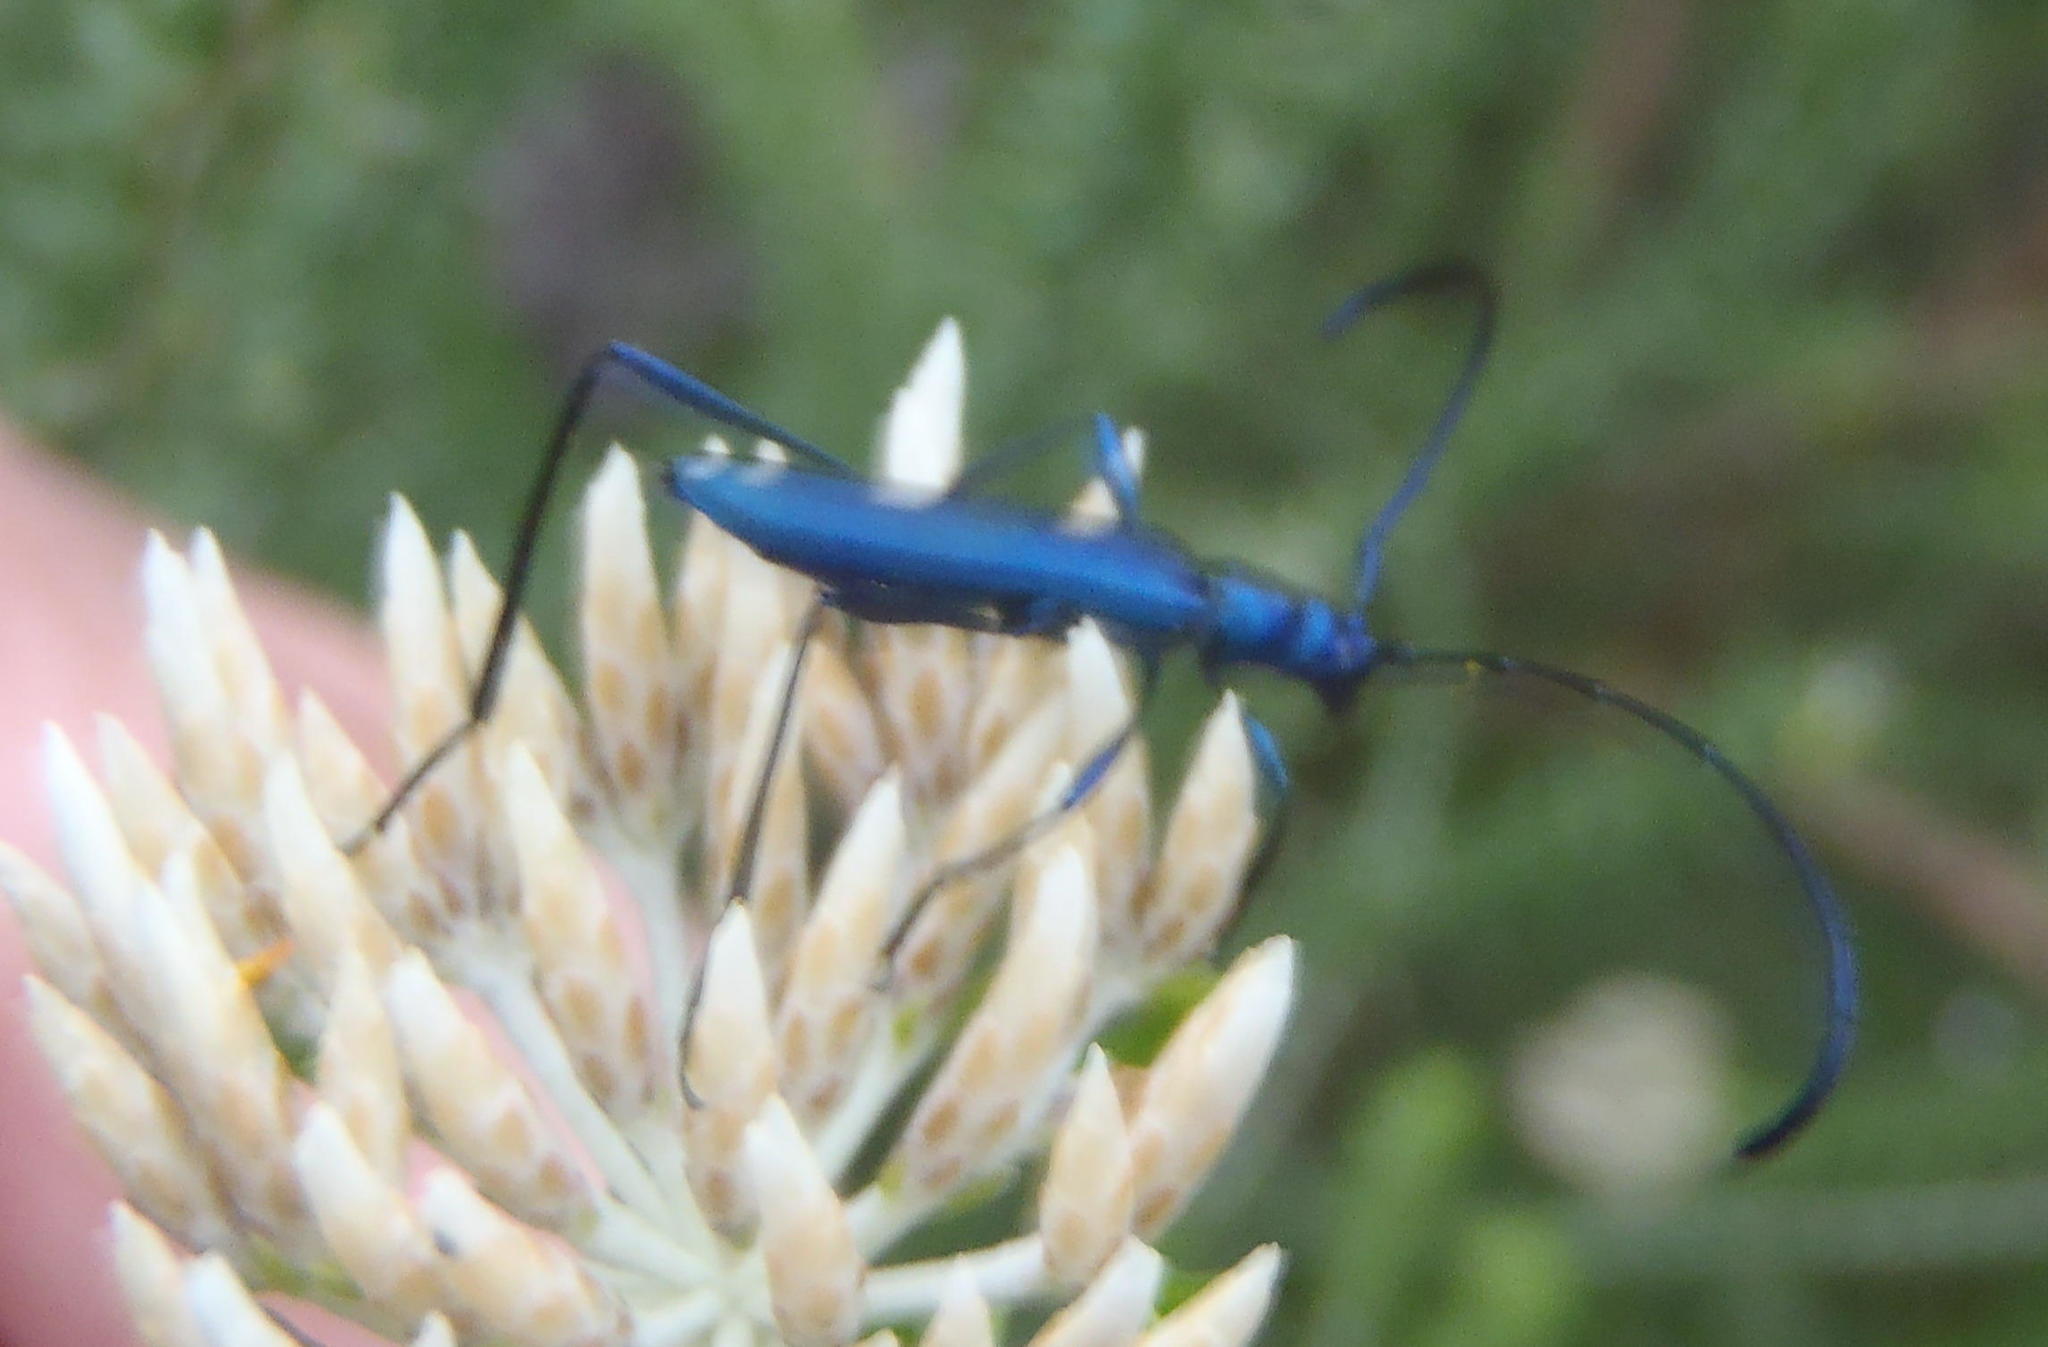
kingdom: Animalia
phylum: Arthropoda
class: Insecta
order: Coleoptera
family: Cerambycidae
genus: Promeces
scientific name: Promeces longipes
